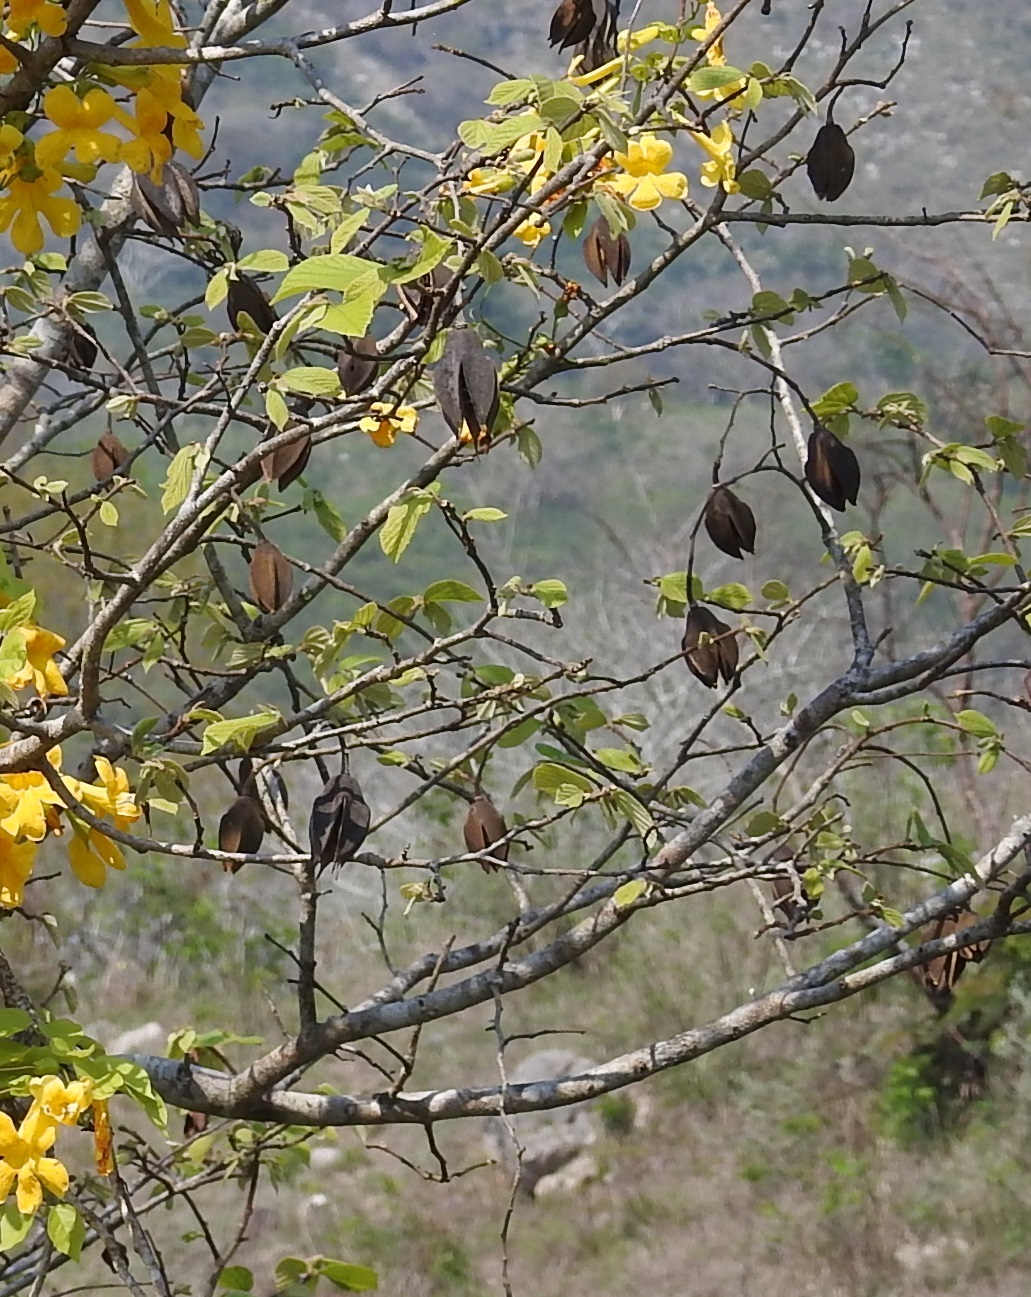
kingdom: Plantae
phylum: Tracheophyta
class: Magnoliopsida
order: Malvales
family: Malvaceae
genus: Luehea
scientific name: Luehea candida
